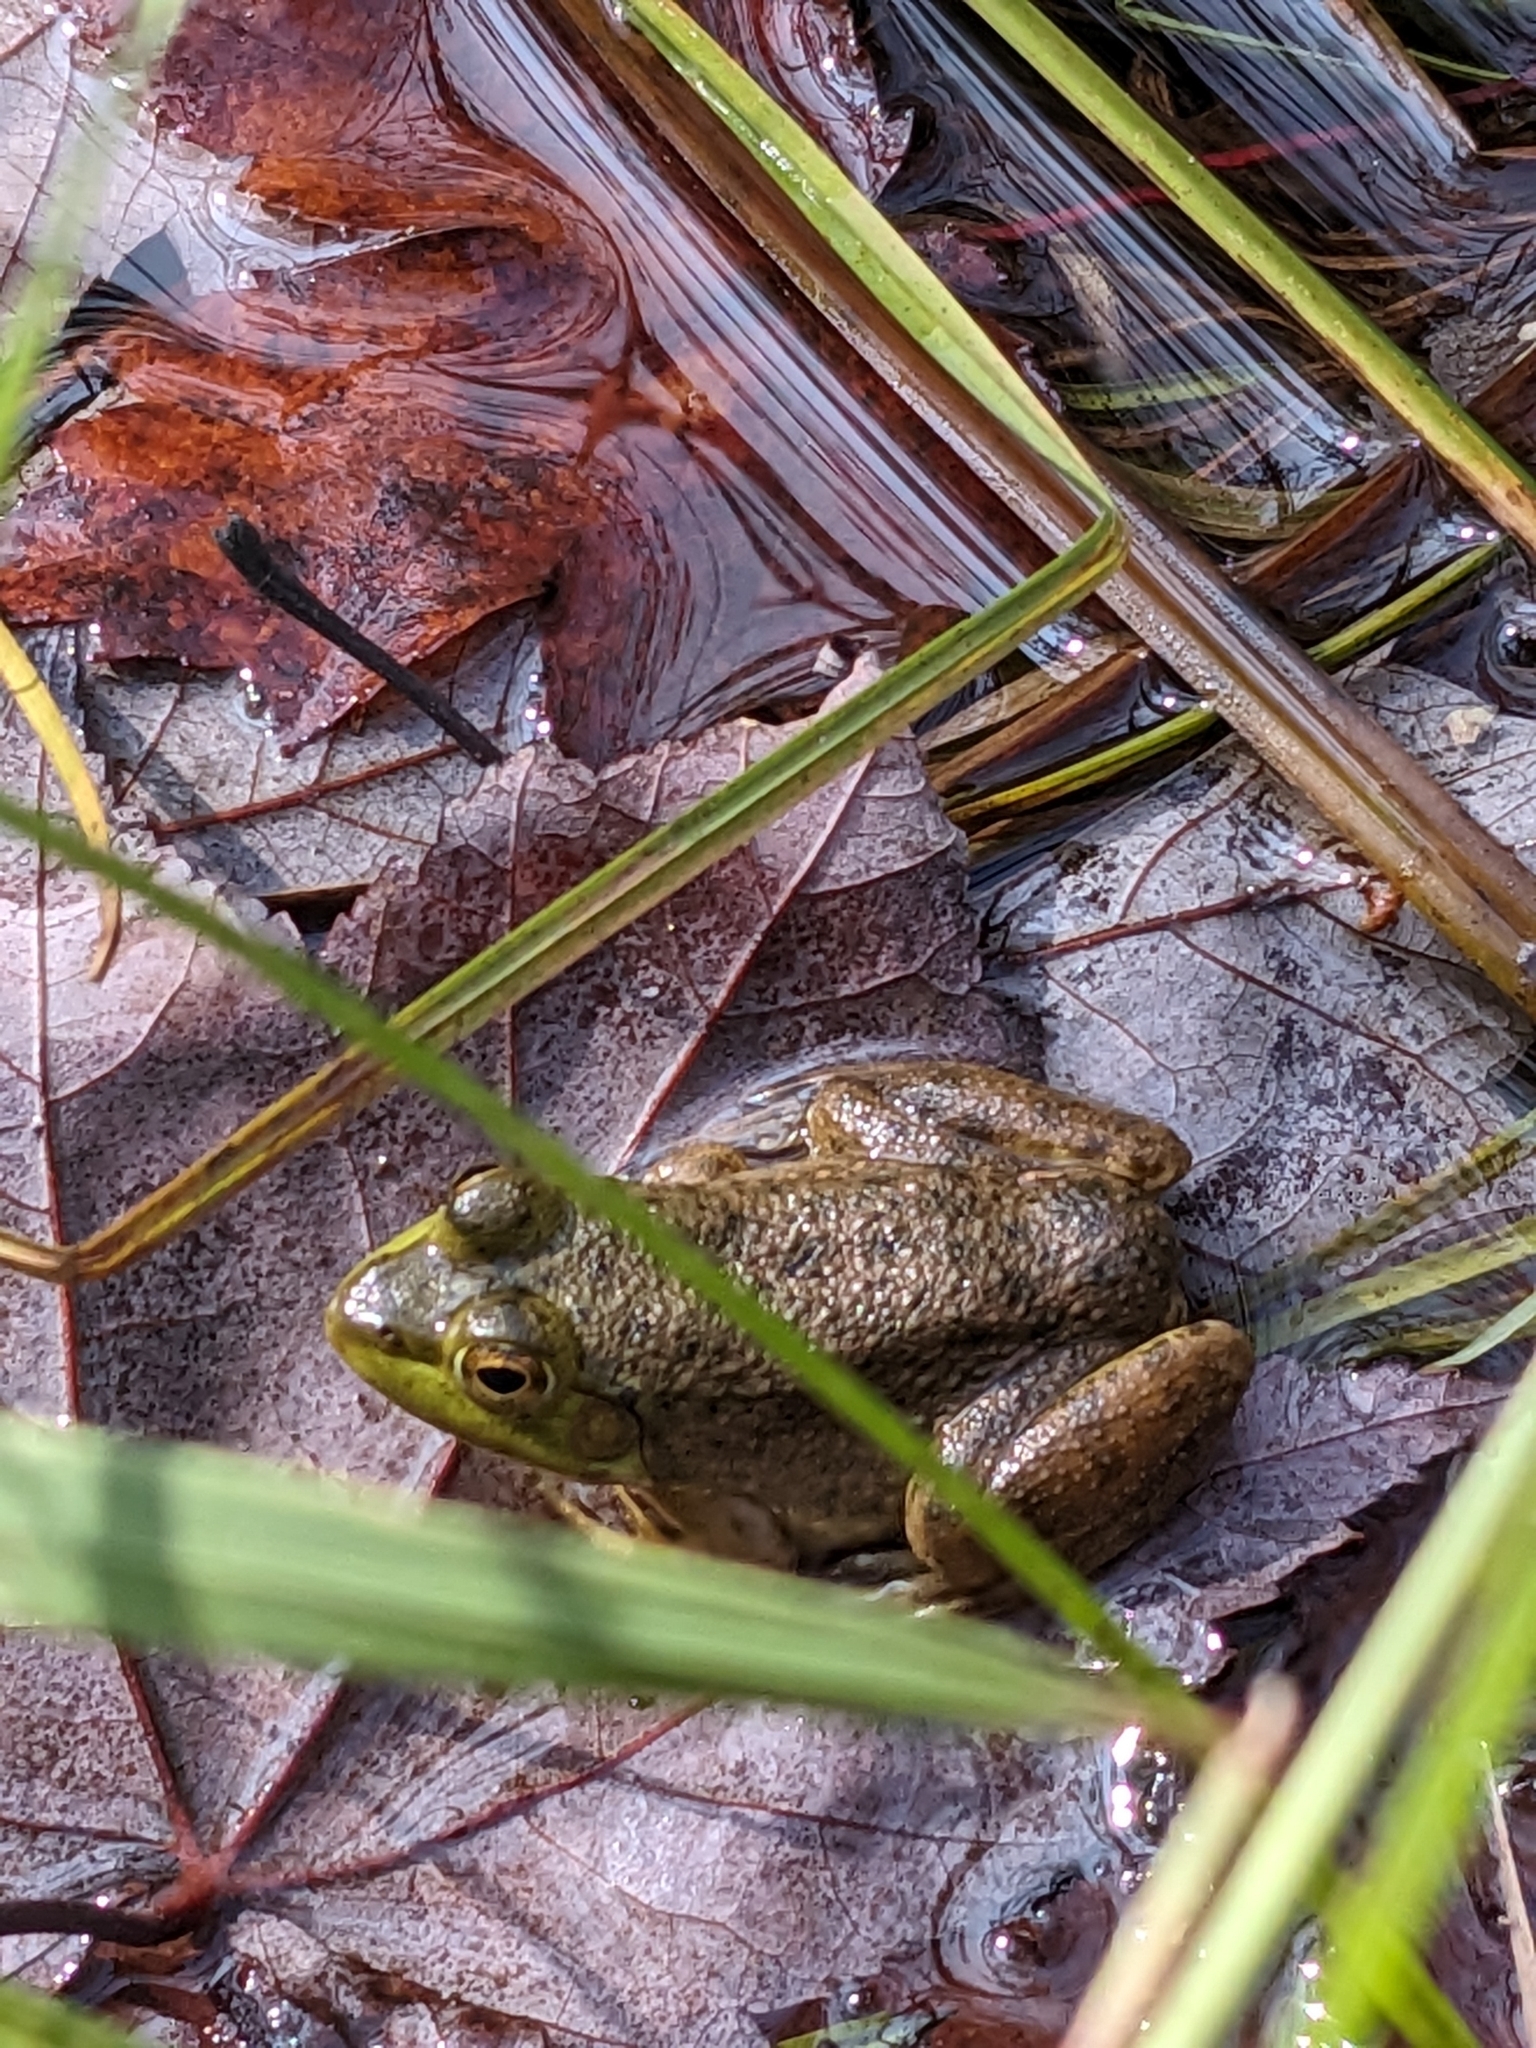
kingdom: Animalia
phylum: Chordata
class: Amphibia
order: Anura
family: Ranidae
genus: Lithobates
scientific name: Lithobates catesbeianus
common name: American bullfrog
